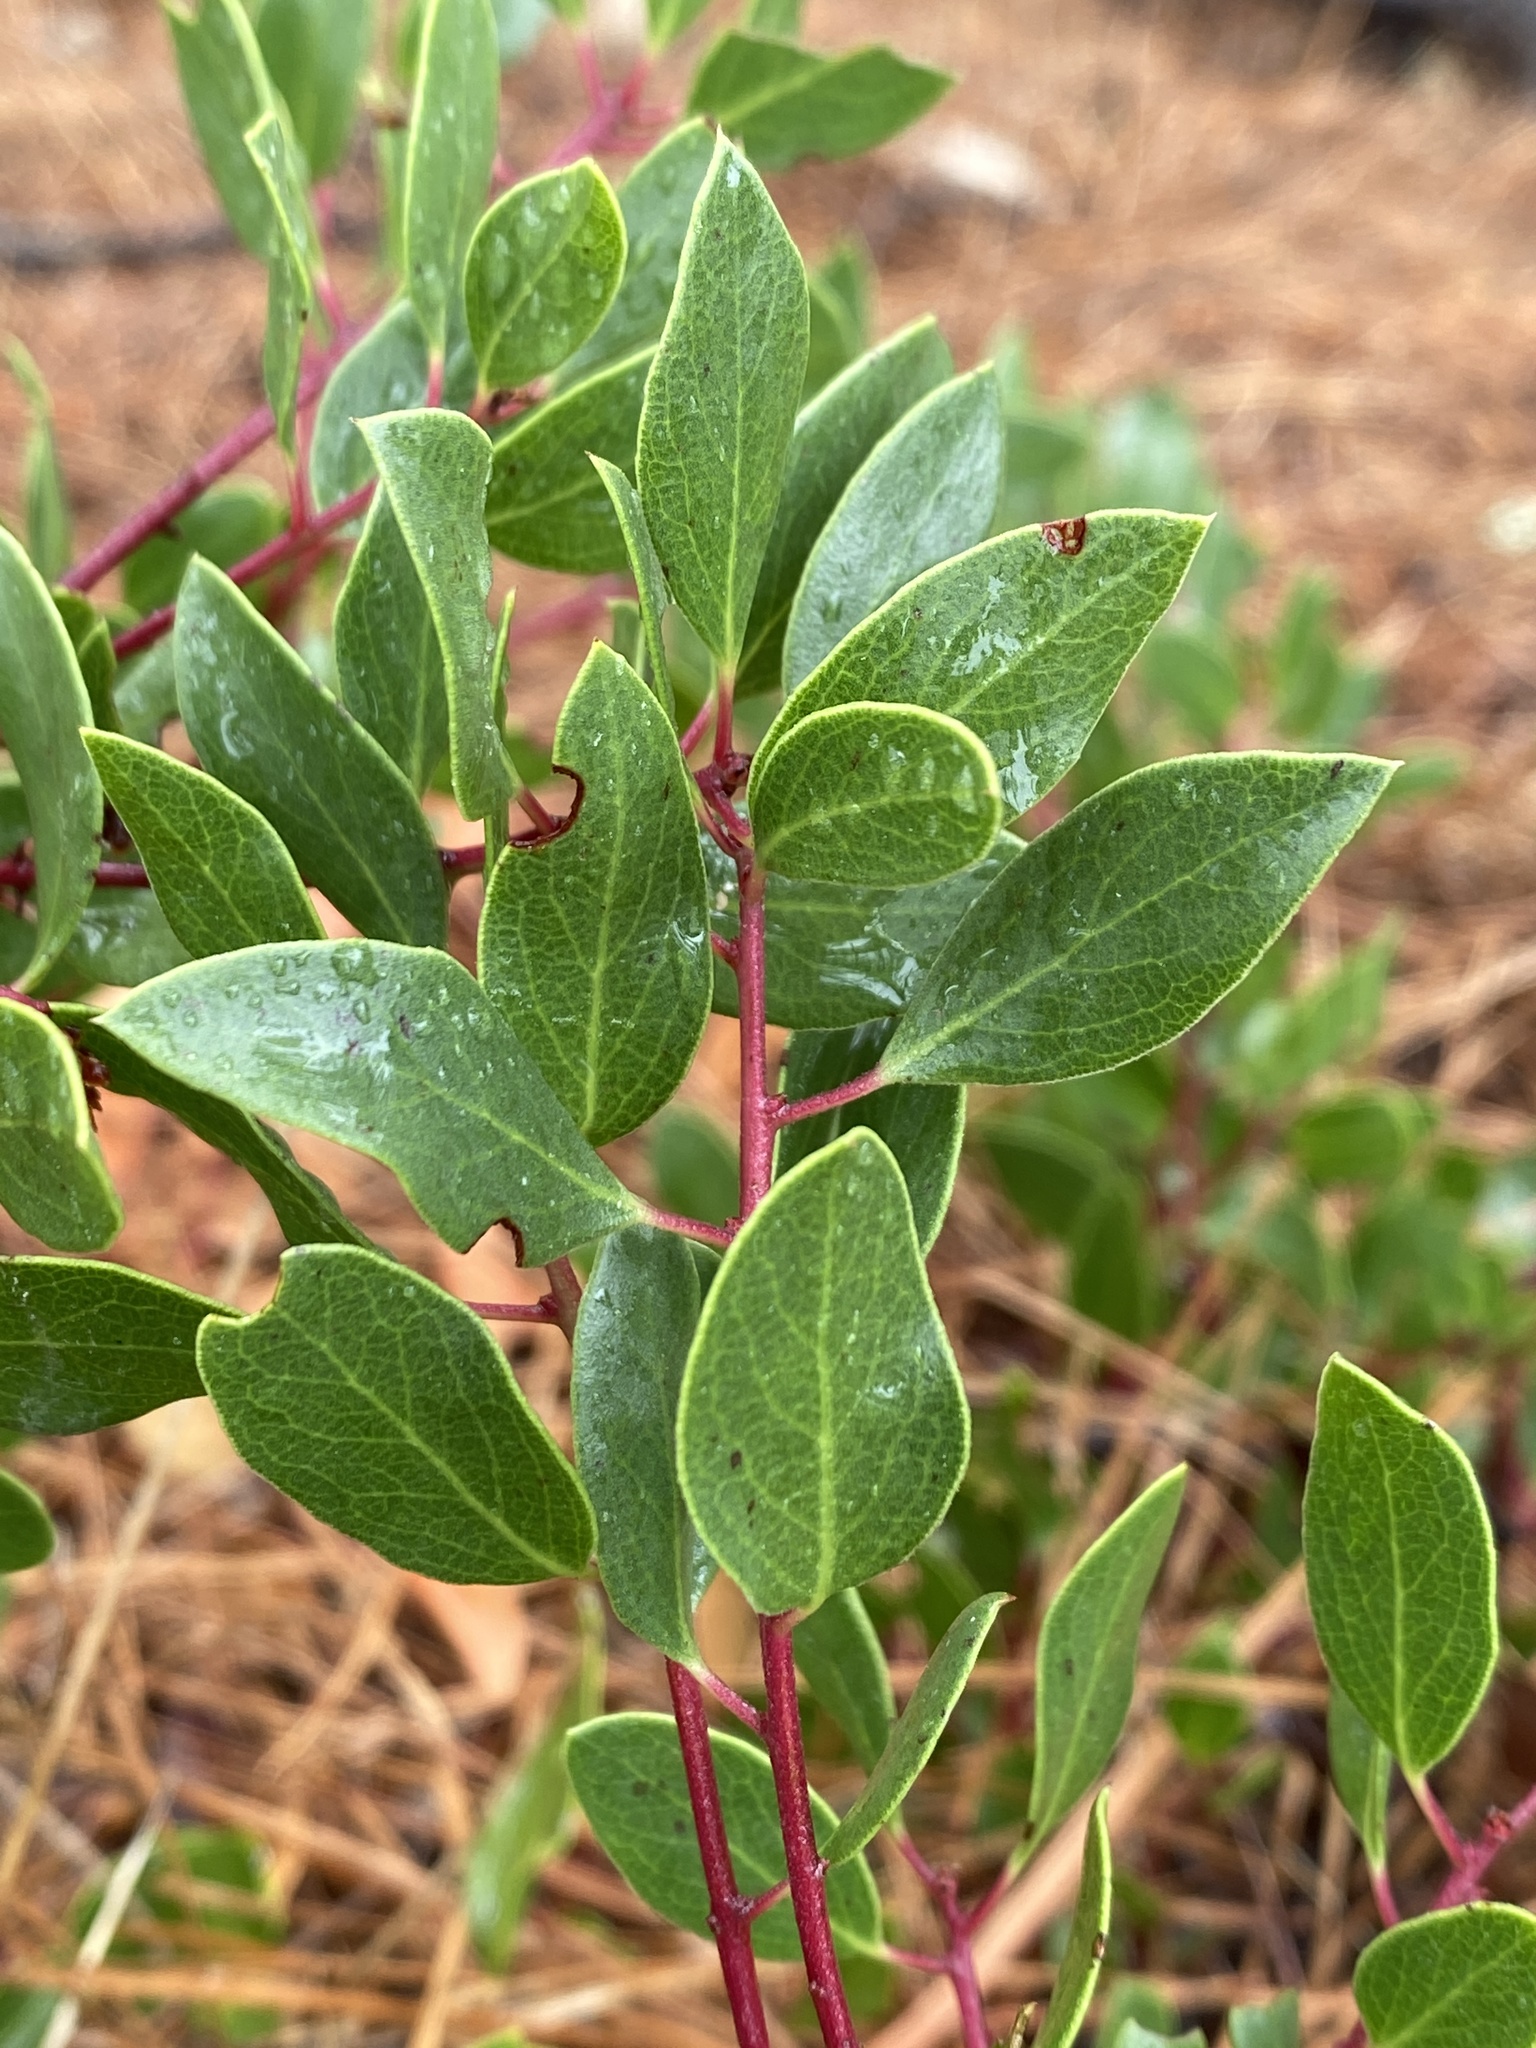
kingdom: Plantae
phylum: Tracheophyta
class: Magnoliopsida
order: Ericales
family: Ericaceae
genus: Arctostaphylos
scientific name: Arctostaphylos hookeri
